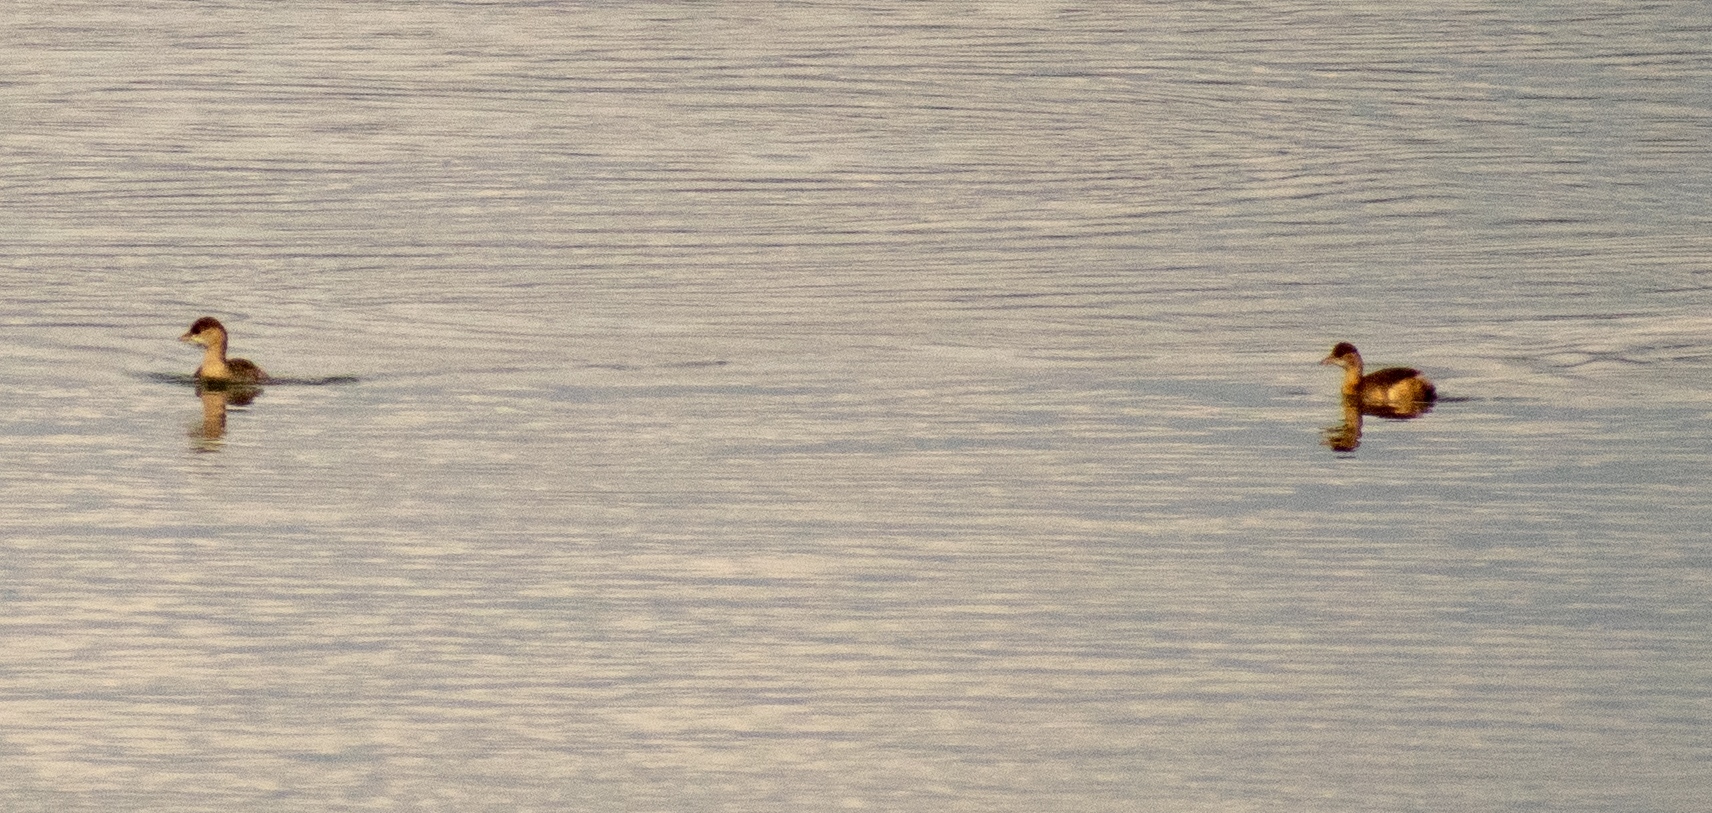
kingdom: Animalia
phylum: Chordata
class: Aves
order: Podicipediformes
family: Podicipedidae
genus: Tachybaptus
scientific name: Tachybaptus ruficollis
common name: Little grebe
